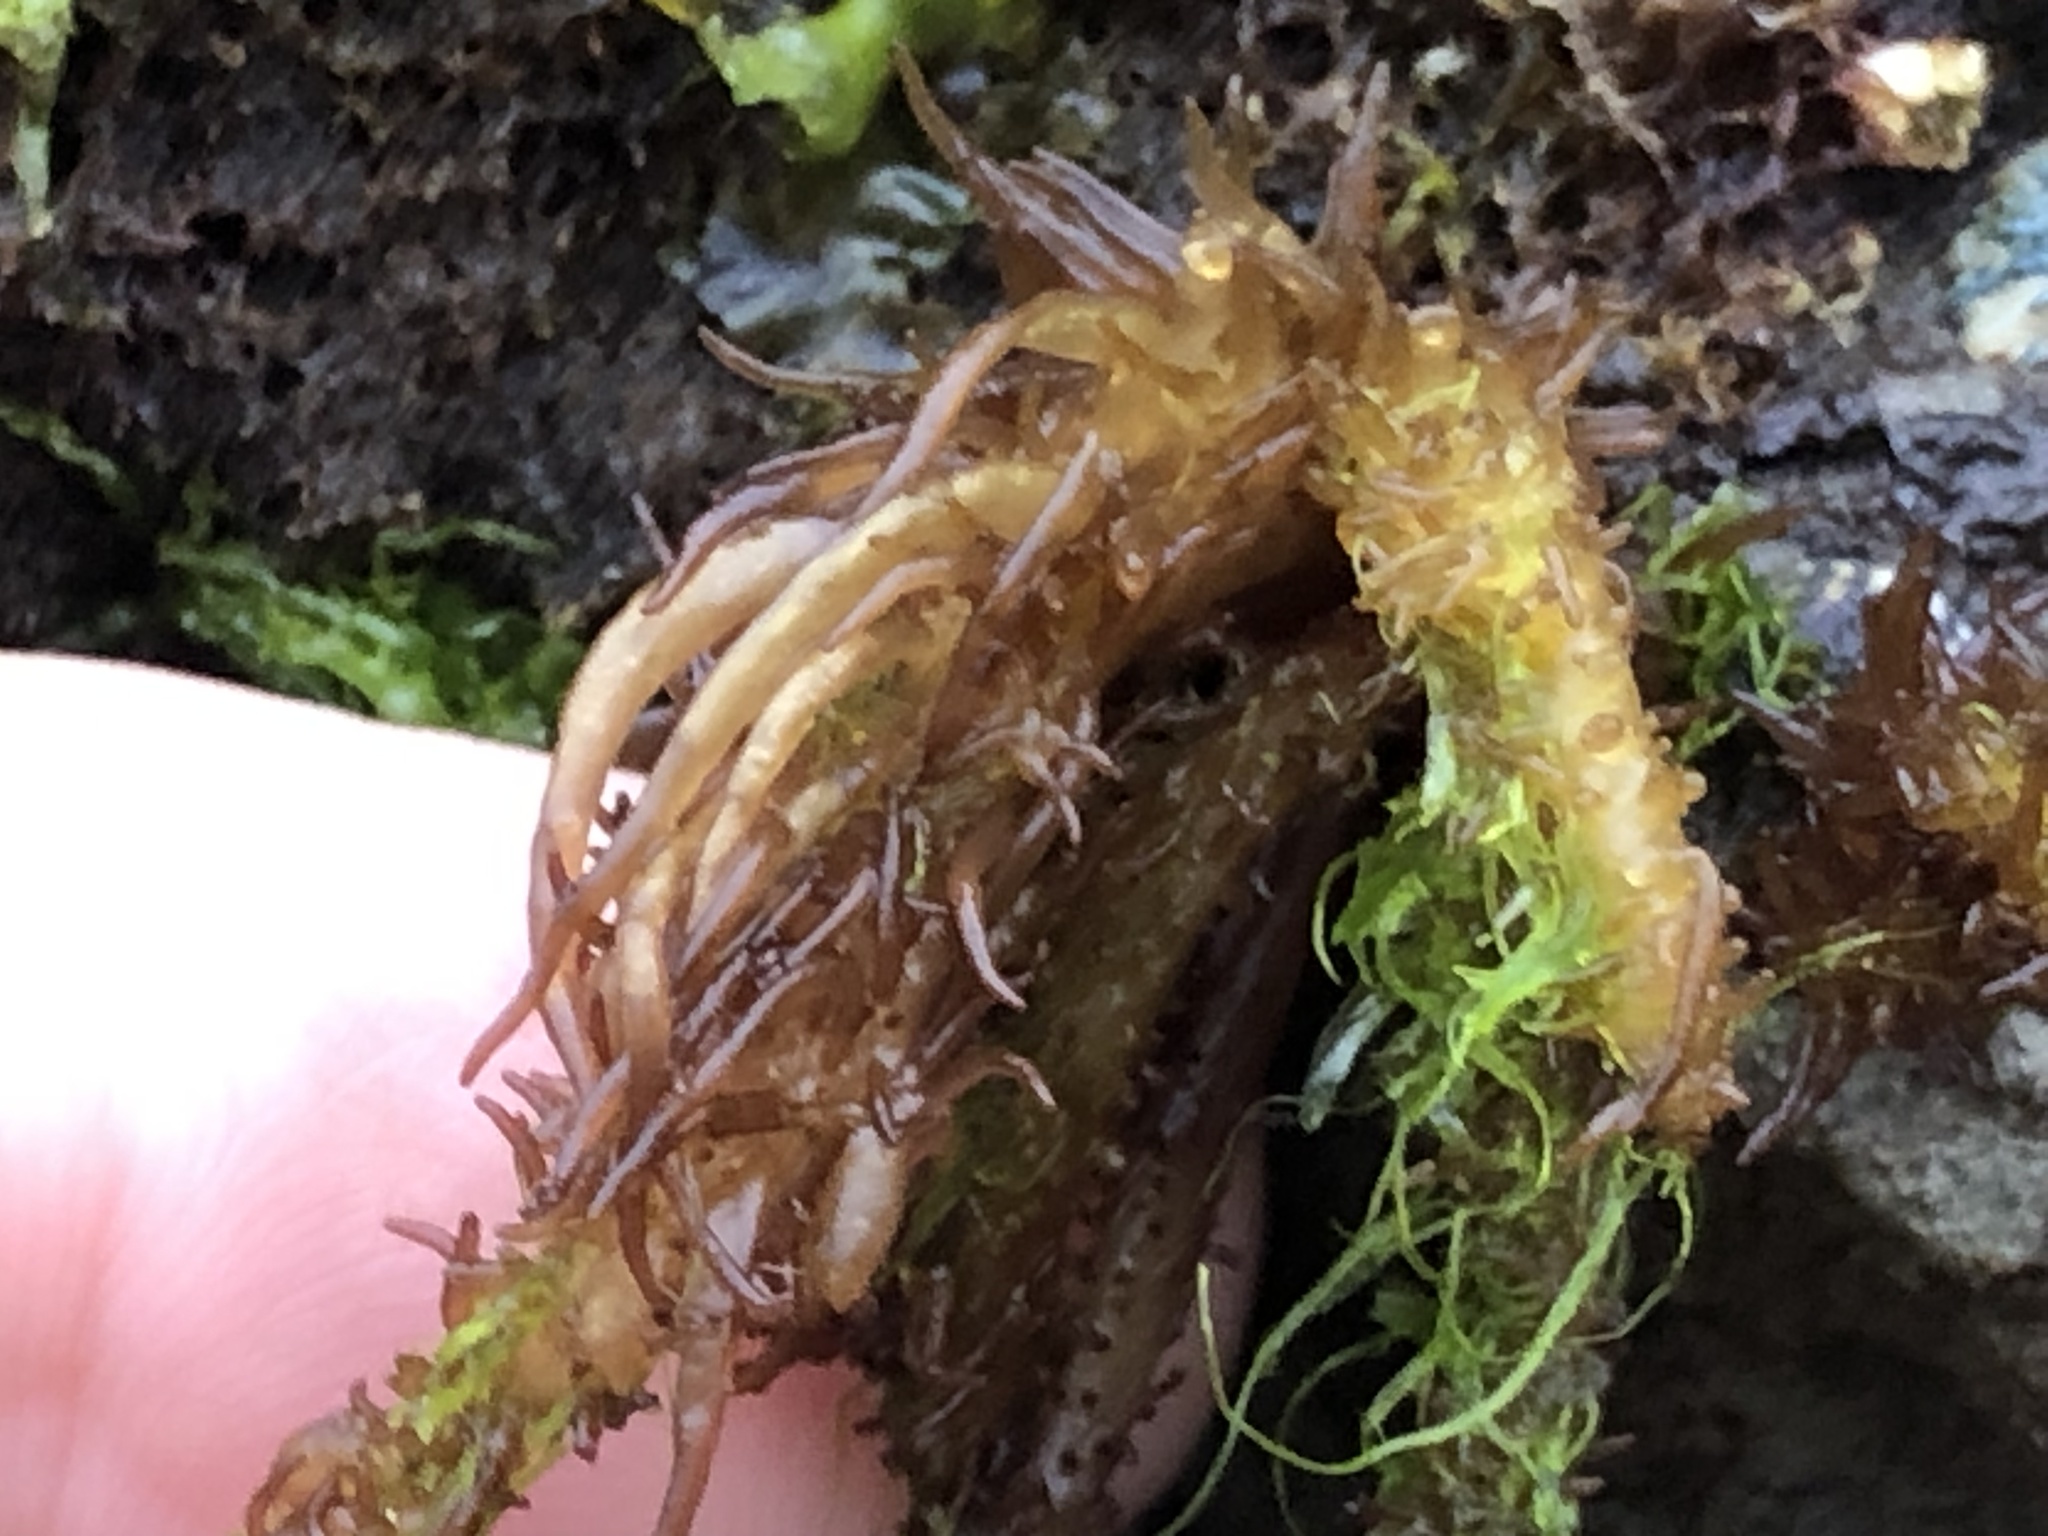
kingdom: Plantae
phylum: Rhodophyta
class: Florideophyceae
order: Nemaliales
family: Liagoraceae
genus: Cumagloia
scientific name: Cumagloia andersonii
